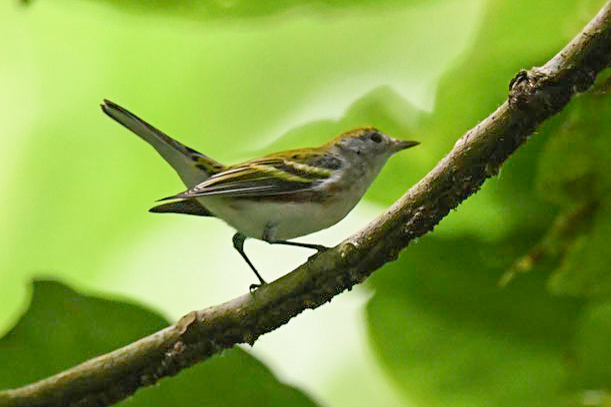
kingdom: Animalia
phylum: Chordata
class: Aves
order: Passeriformes
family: Parulidae
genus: Setophaga
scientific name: Setophaga pensylvanica
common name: Chestnut-sided warbler
